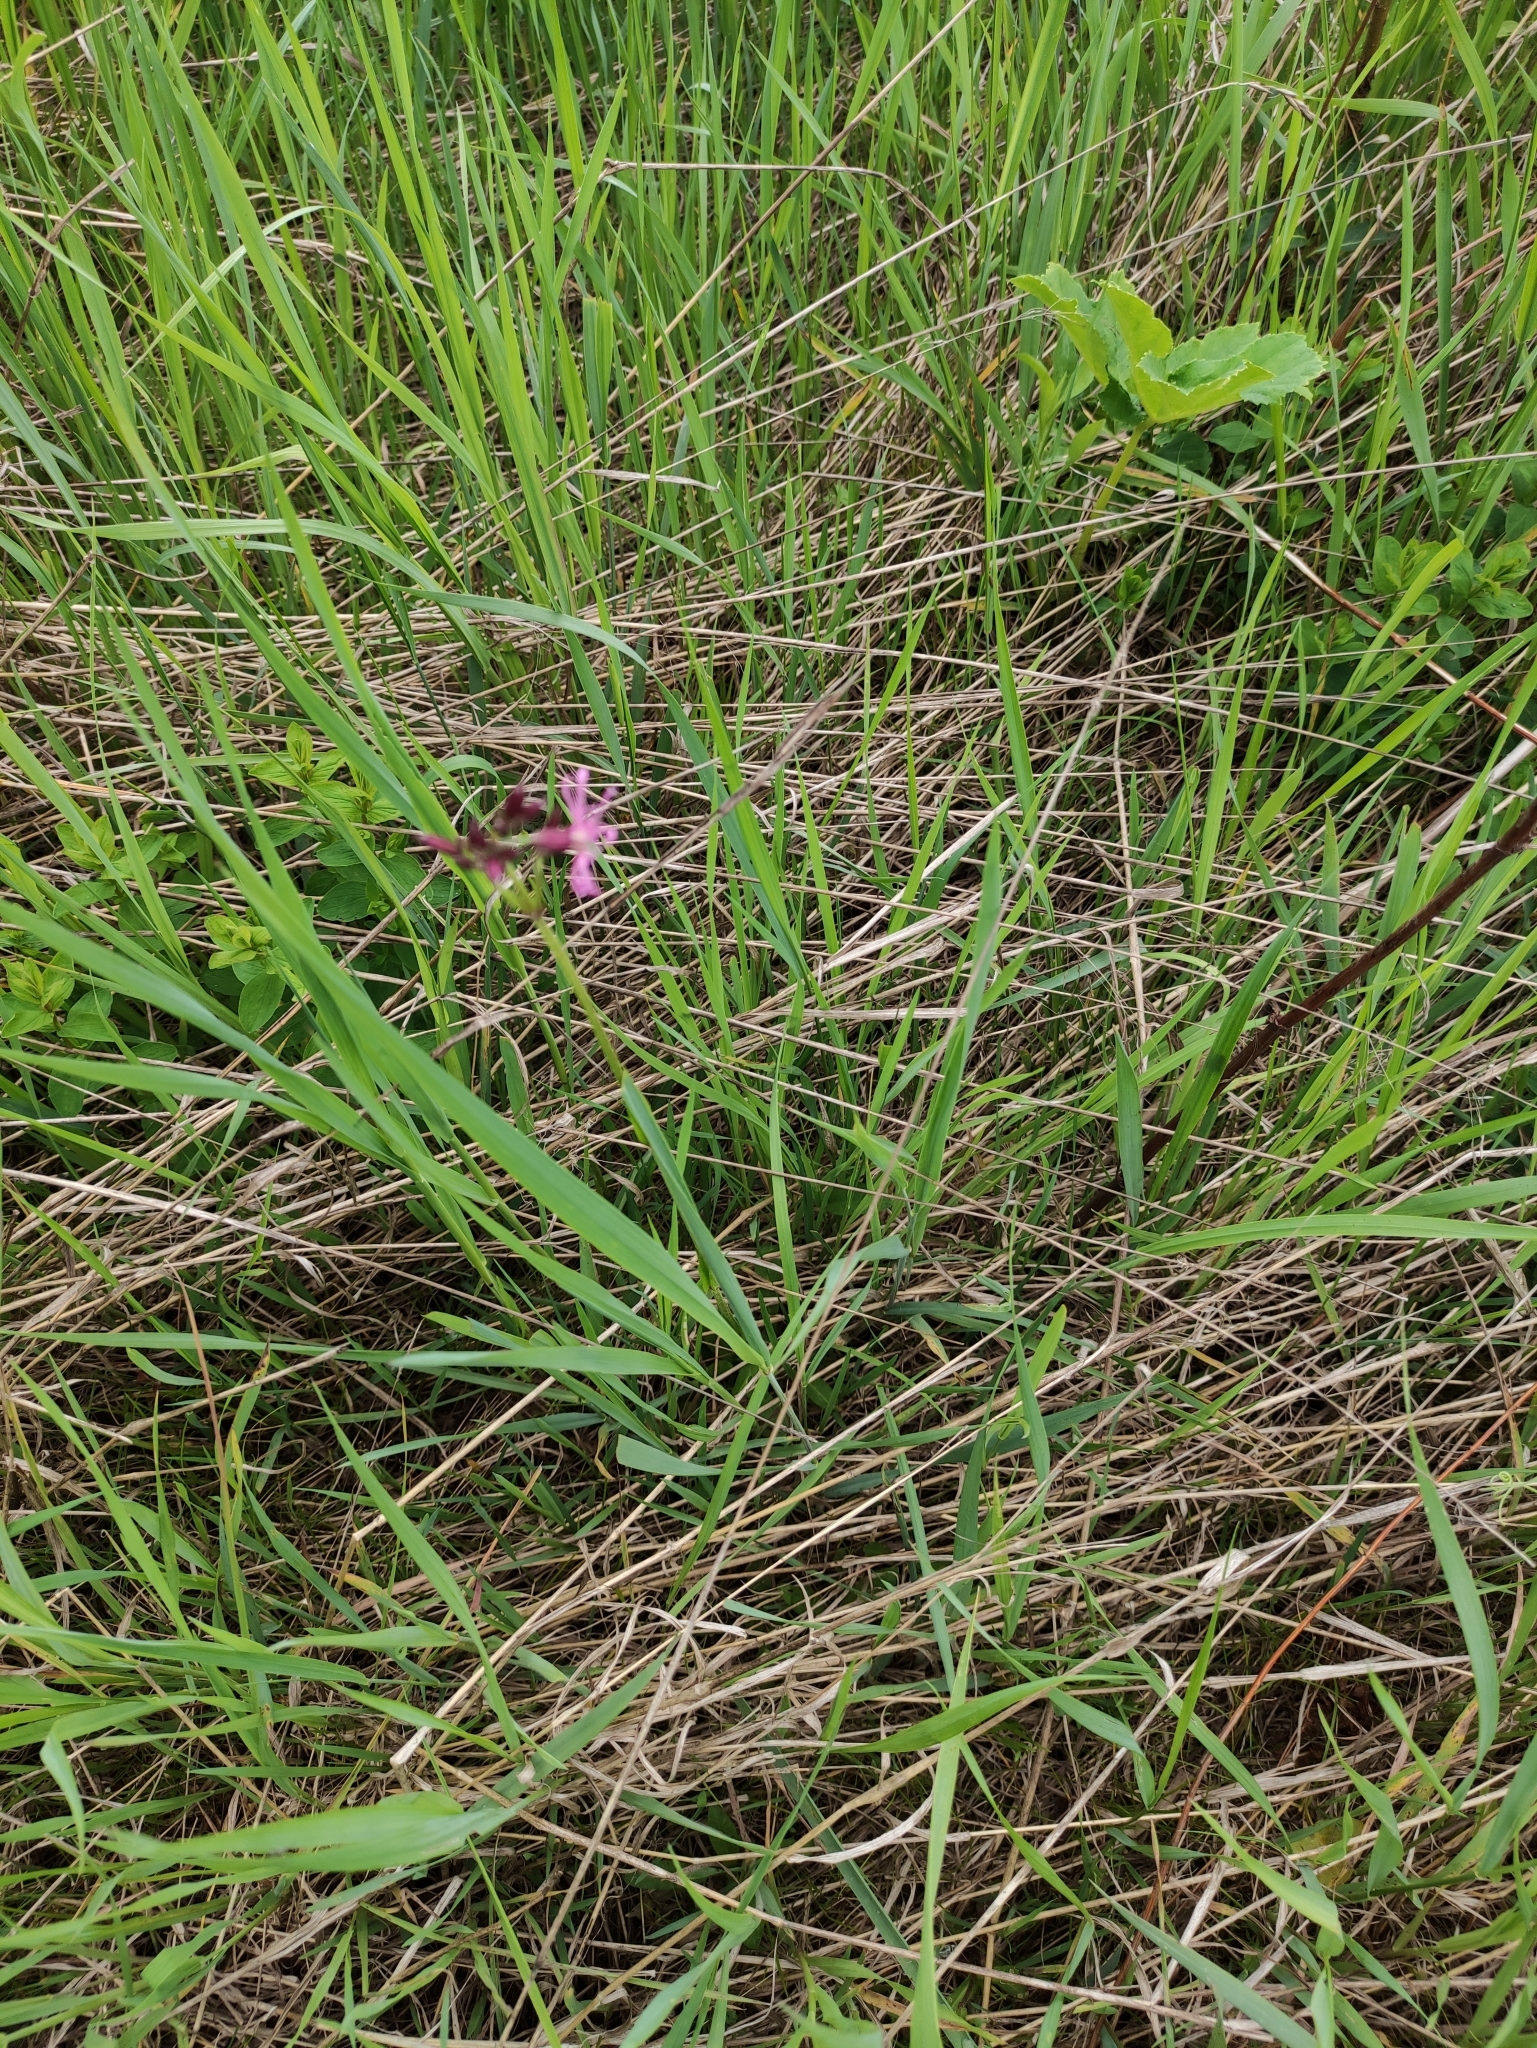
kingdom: Plantae
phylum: Tracheophyta
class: Magnoliopsida
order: Caryophyllales
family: Caryophyllaceae
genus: Silene
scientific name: Silene flos-cuculi
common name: Ragged-robin
